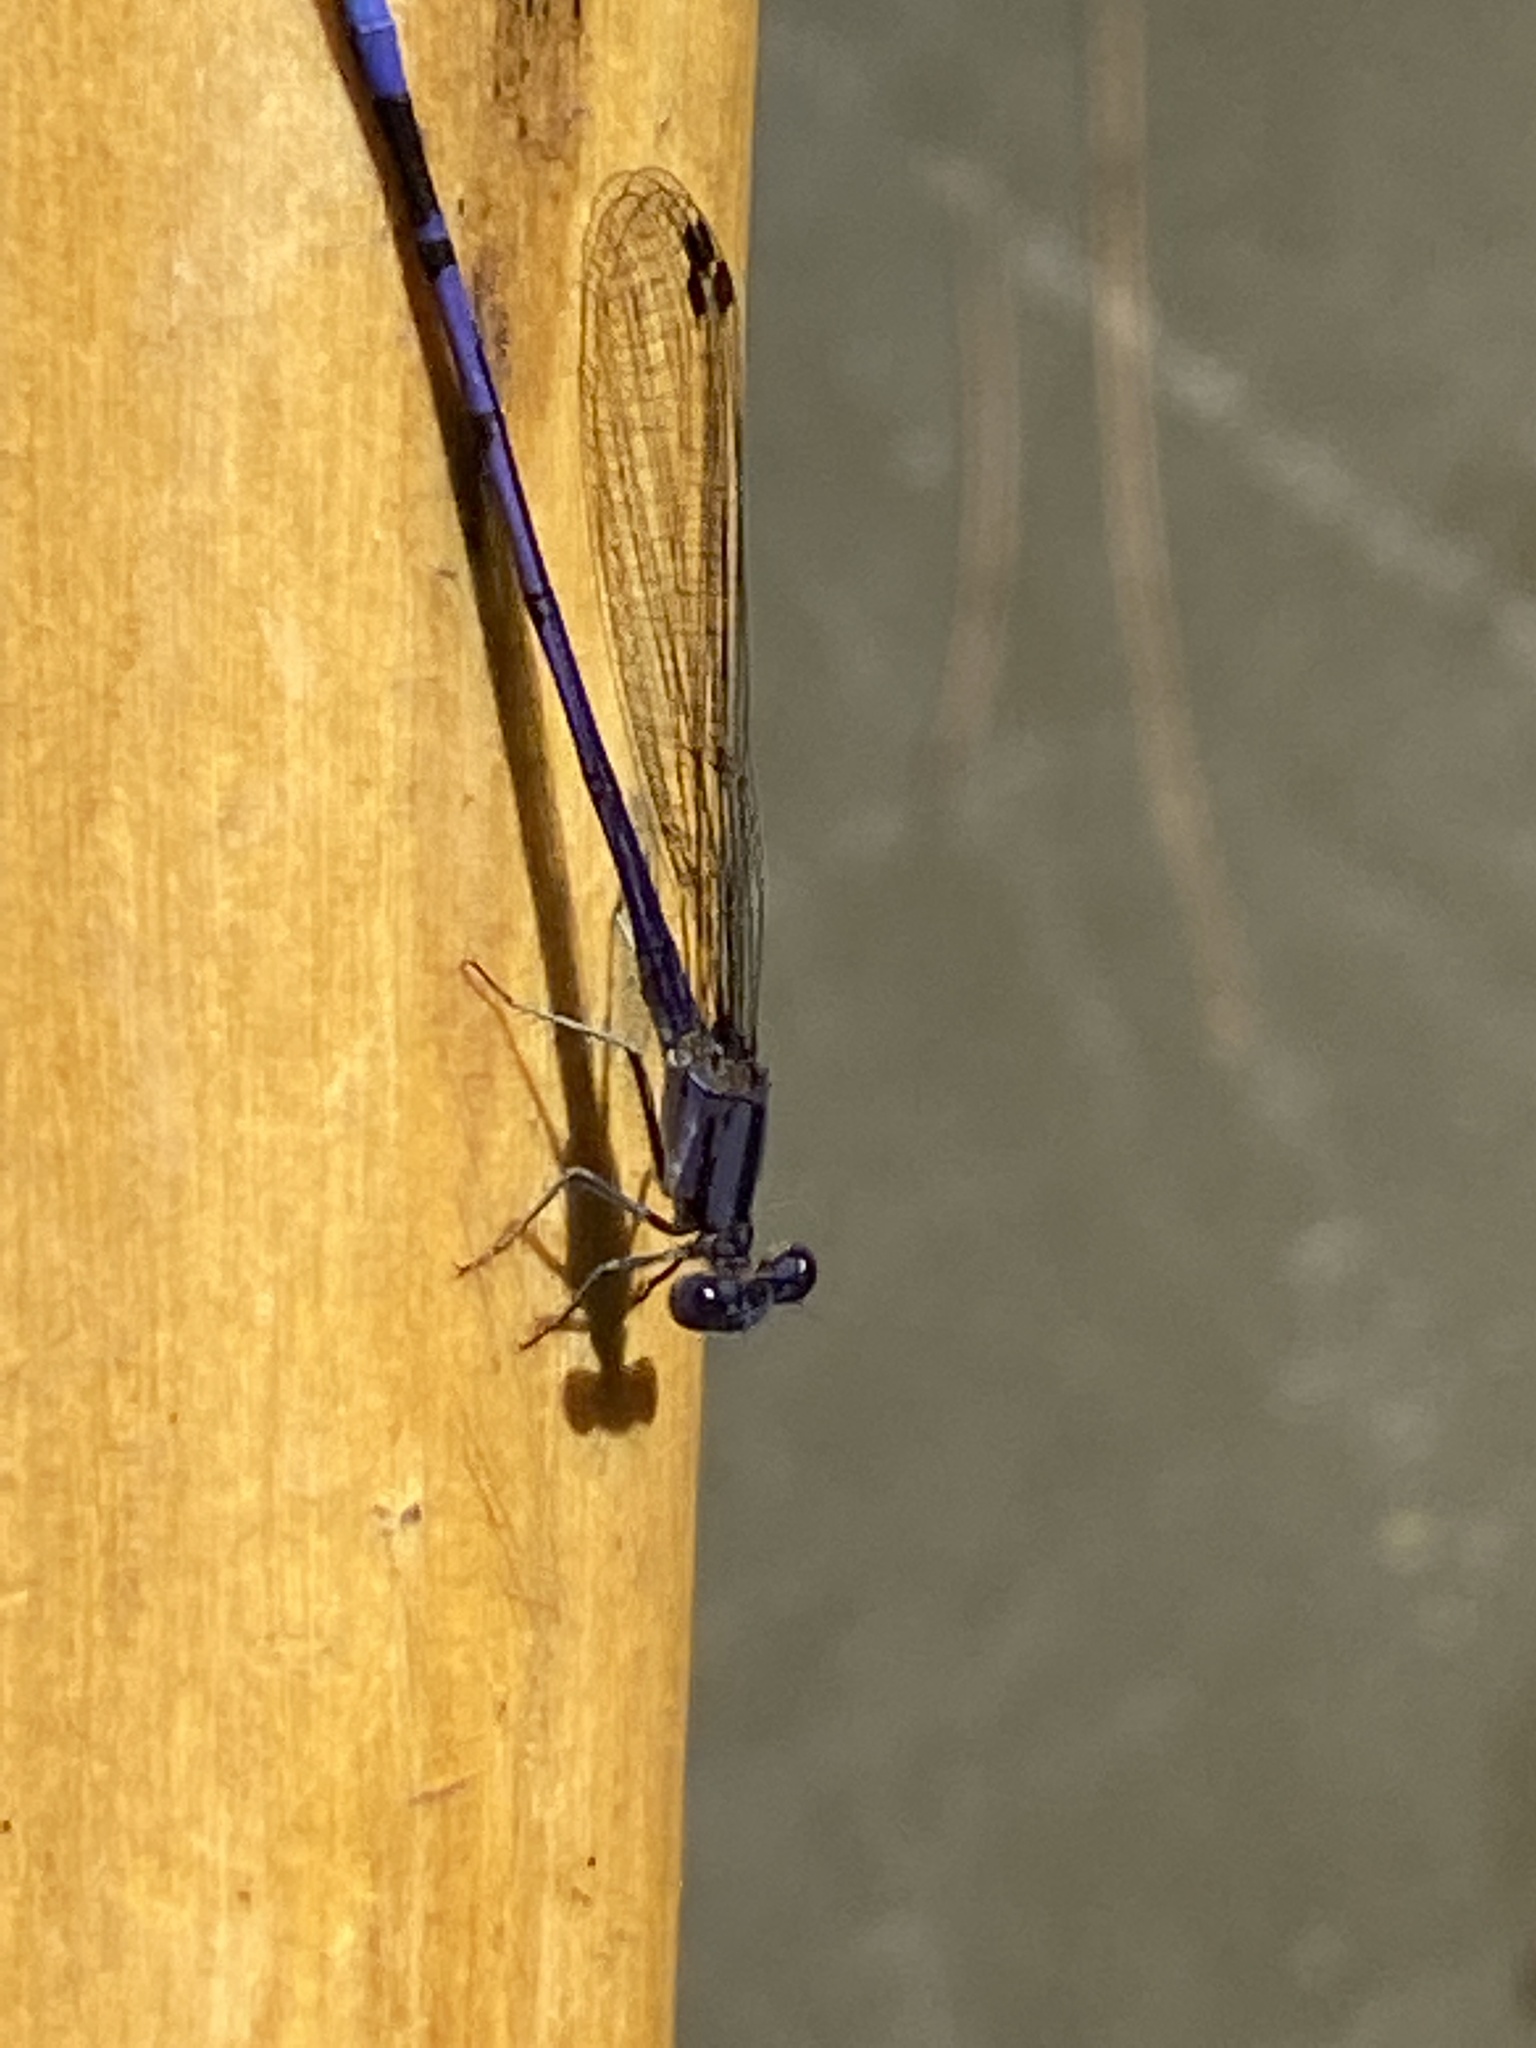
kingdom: Animalia
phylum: Arthropoda
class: Insecta
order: Odonata
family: Coenagrionidae
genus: Argia
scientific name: Argia fumipennis
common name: Variable dancer
